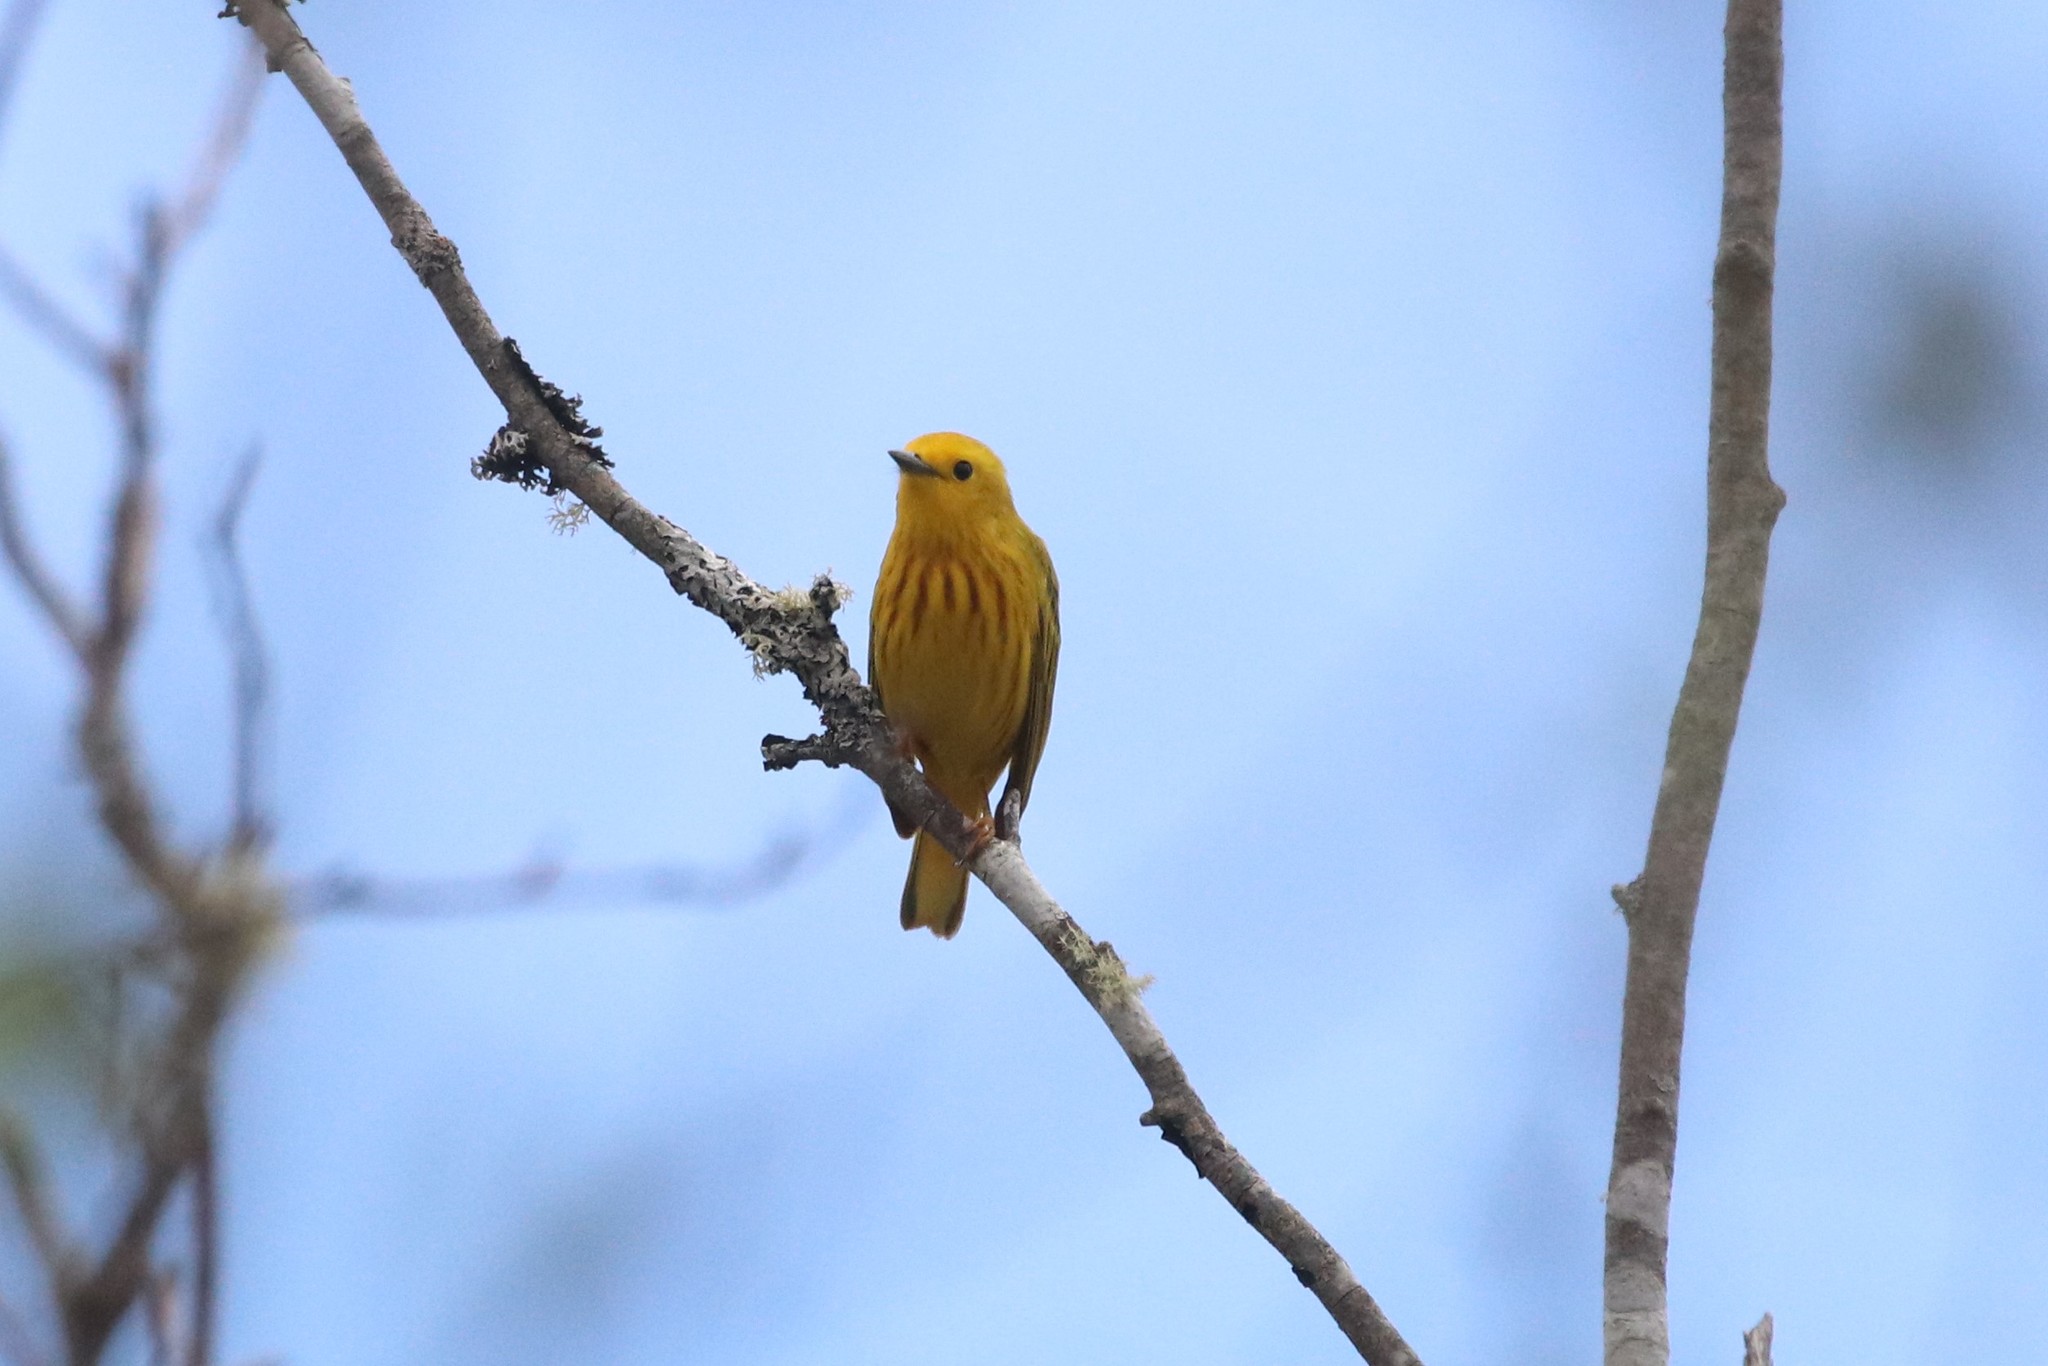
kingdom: Animalia
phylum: Chordata
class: Aves
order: Passeriformes
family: Parulidae
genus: Setophaga
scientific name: Setophaga petechia
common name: Yellow warbler
